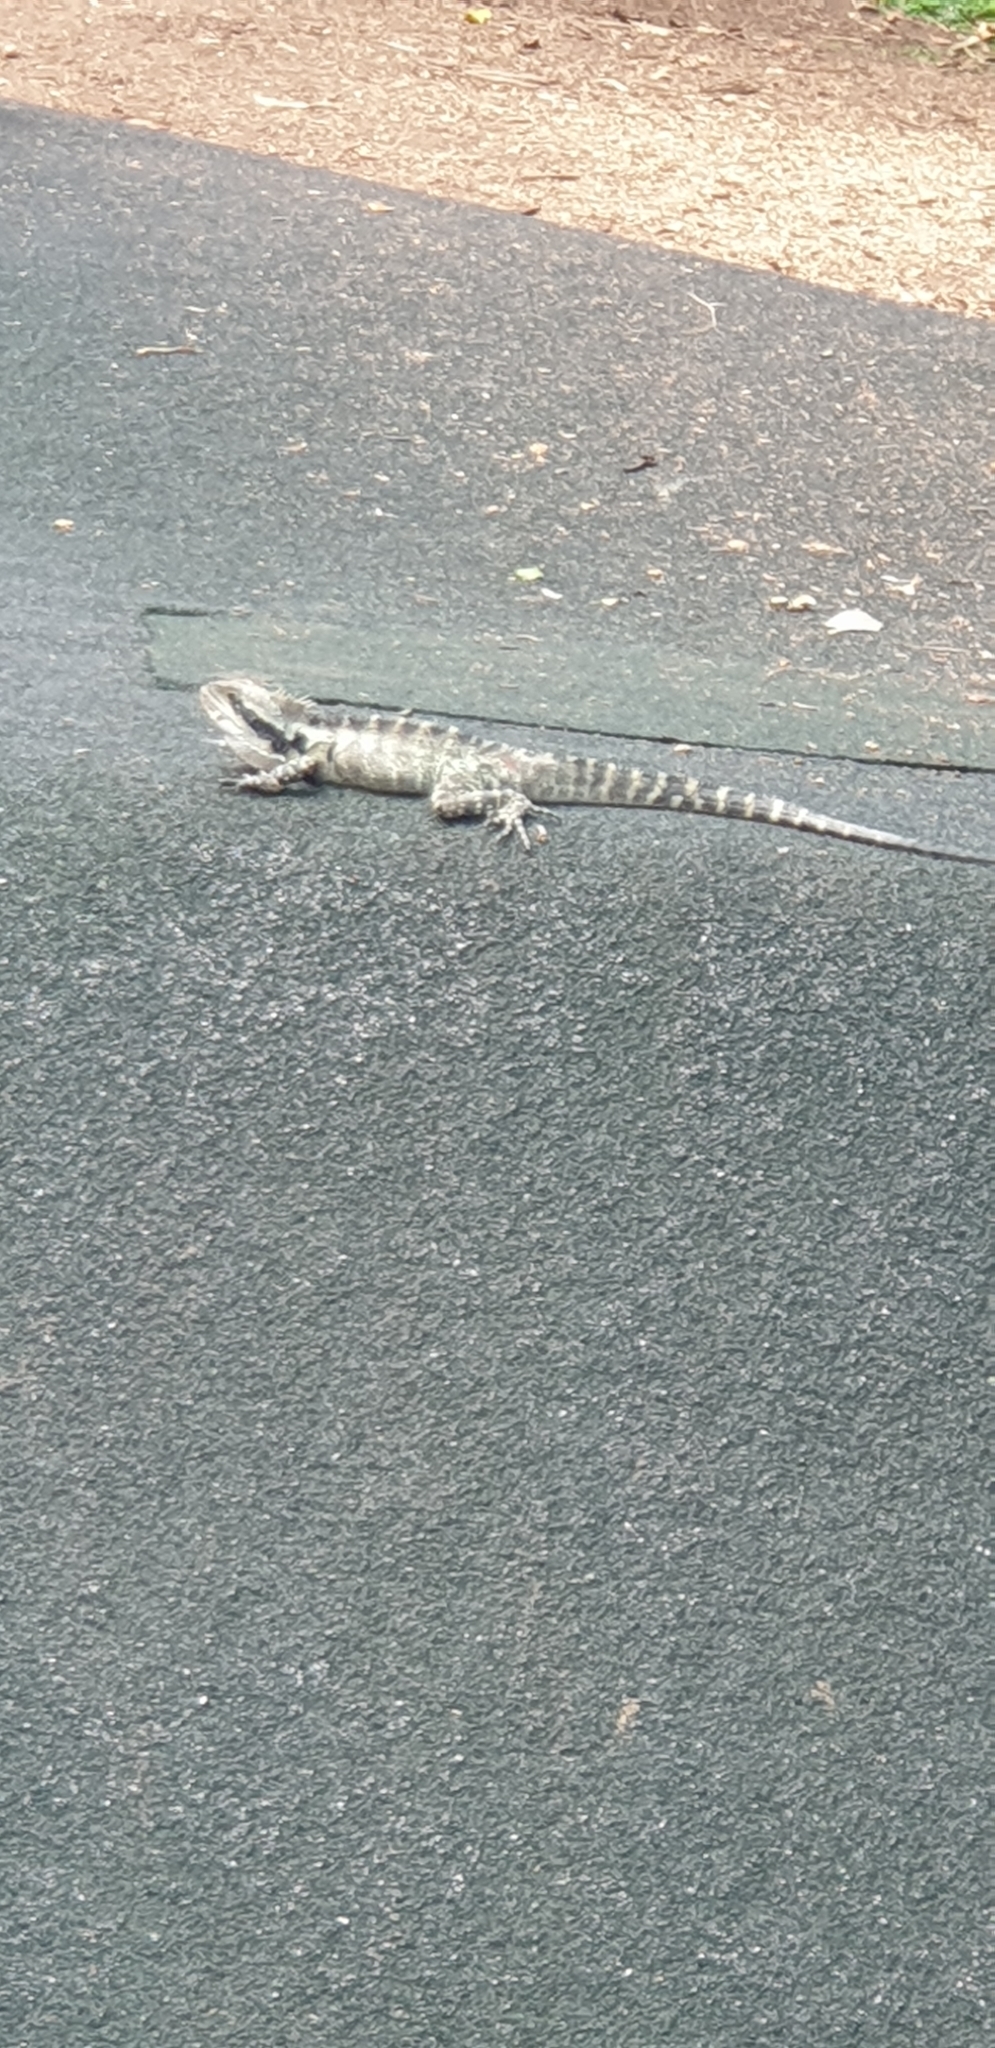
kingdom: Animalia
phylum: Chordata
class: Squamata
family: Agamidae
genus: Intellagama
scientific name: Intellagama lesueurii
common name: Eastern water dragon
